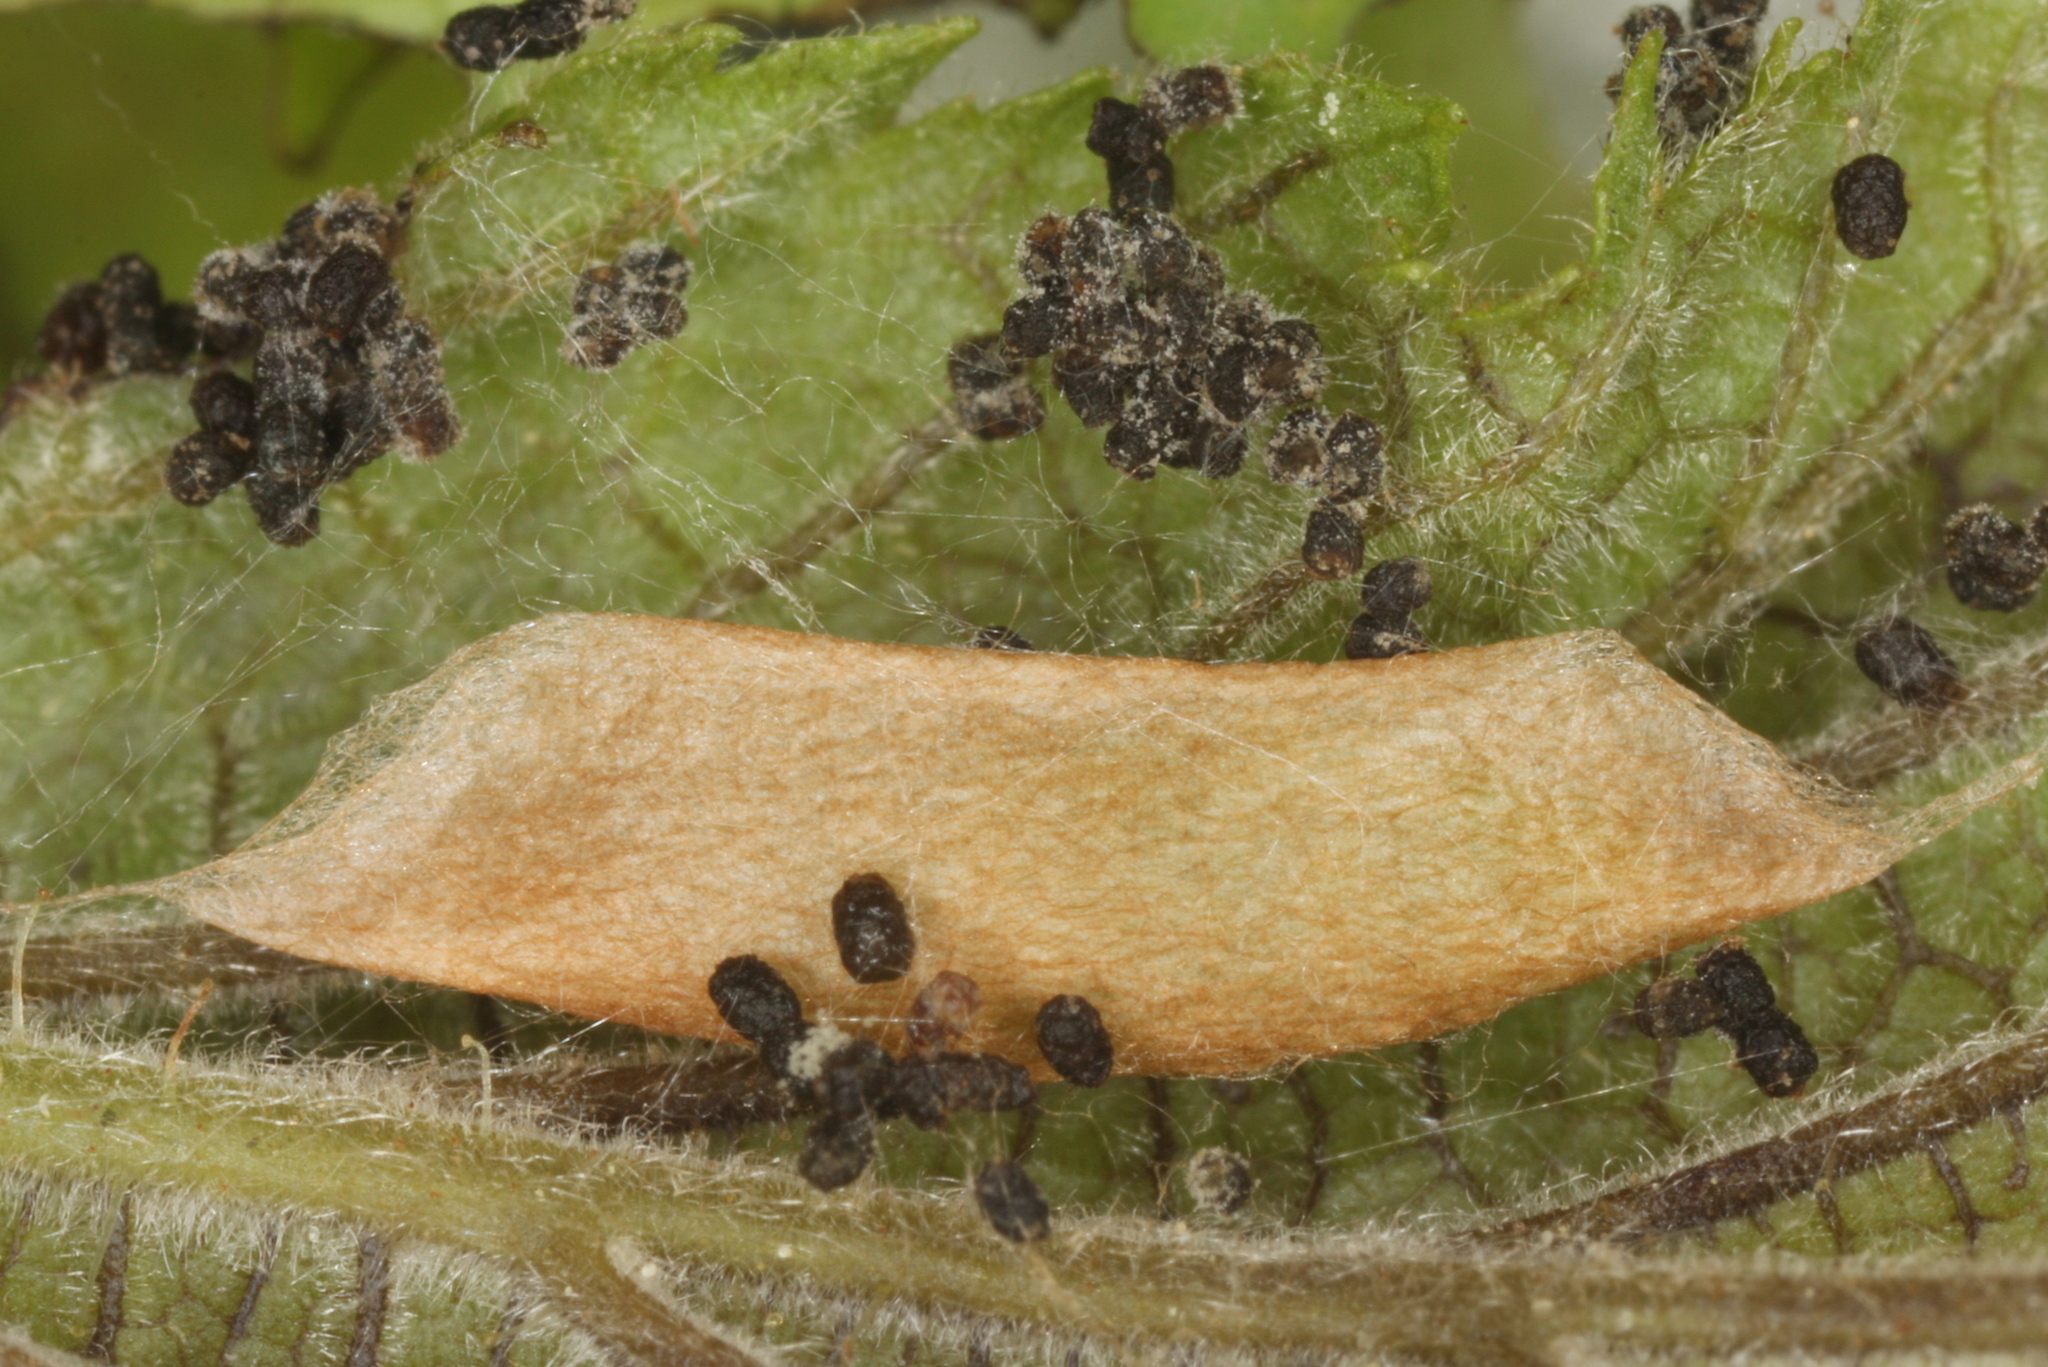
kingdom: Animalia
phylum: Arthropoda
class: Insecta
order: Lepidoptera
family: Plutellidae
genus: Ypsolophus
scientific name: Ypsolophus ustella
